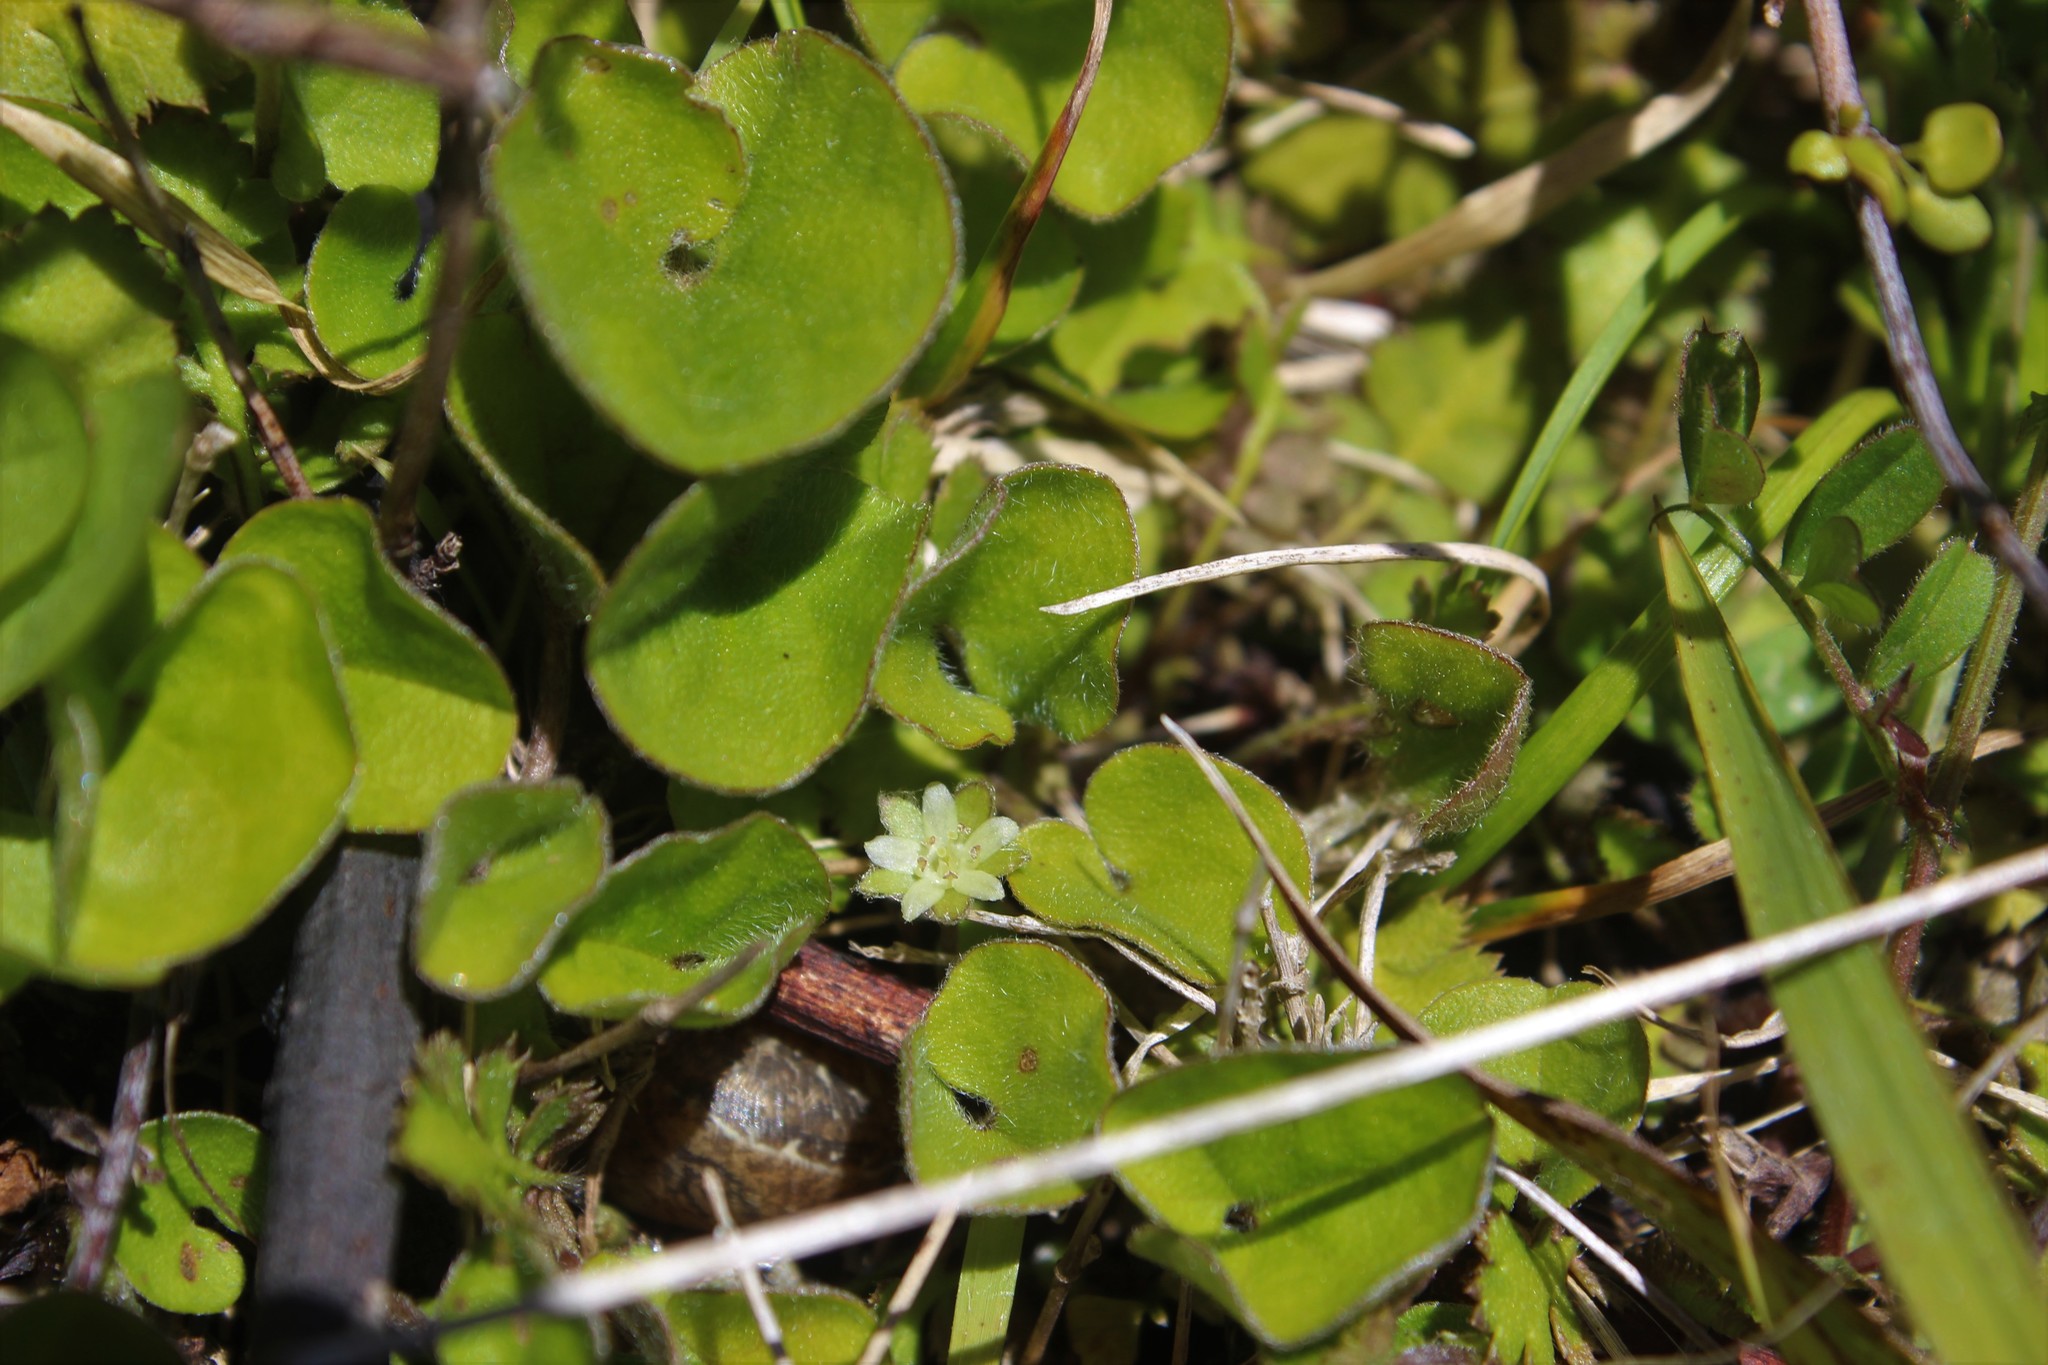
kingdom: Plantae
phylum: Tracheophyta
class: Magnoliopsida
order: Solanales
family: Convolvulaceae
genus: Dichondra
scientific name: Dichondra repens
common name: Kidneyweed
